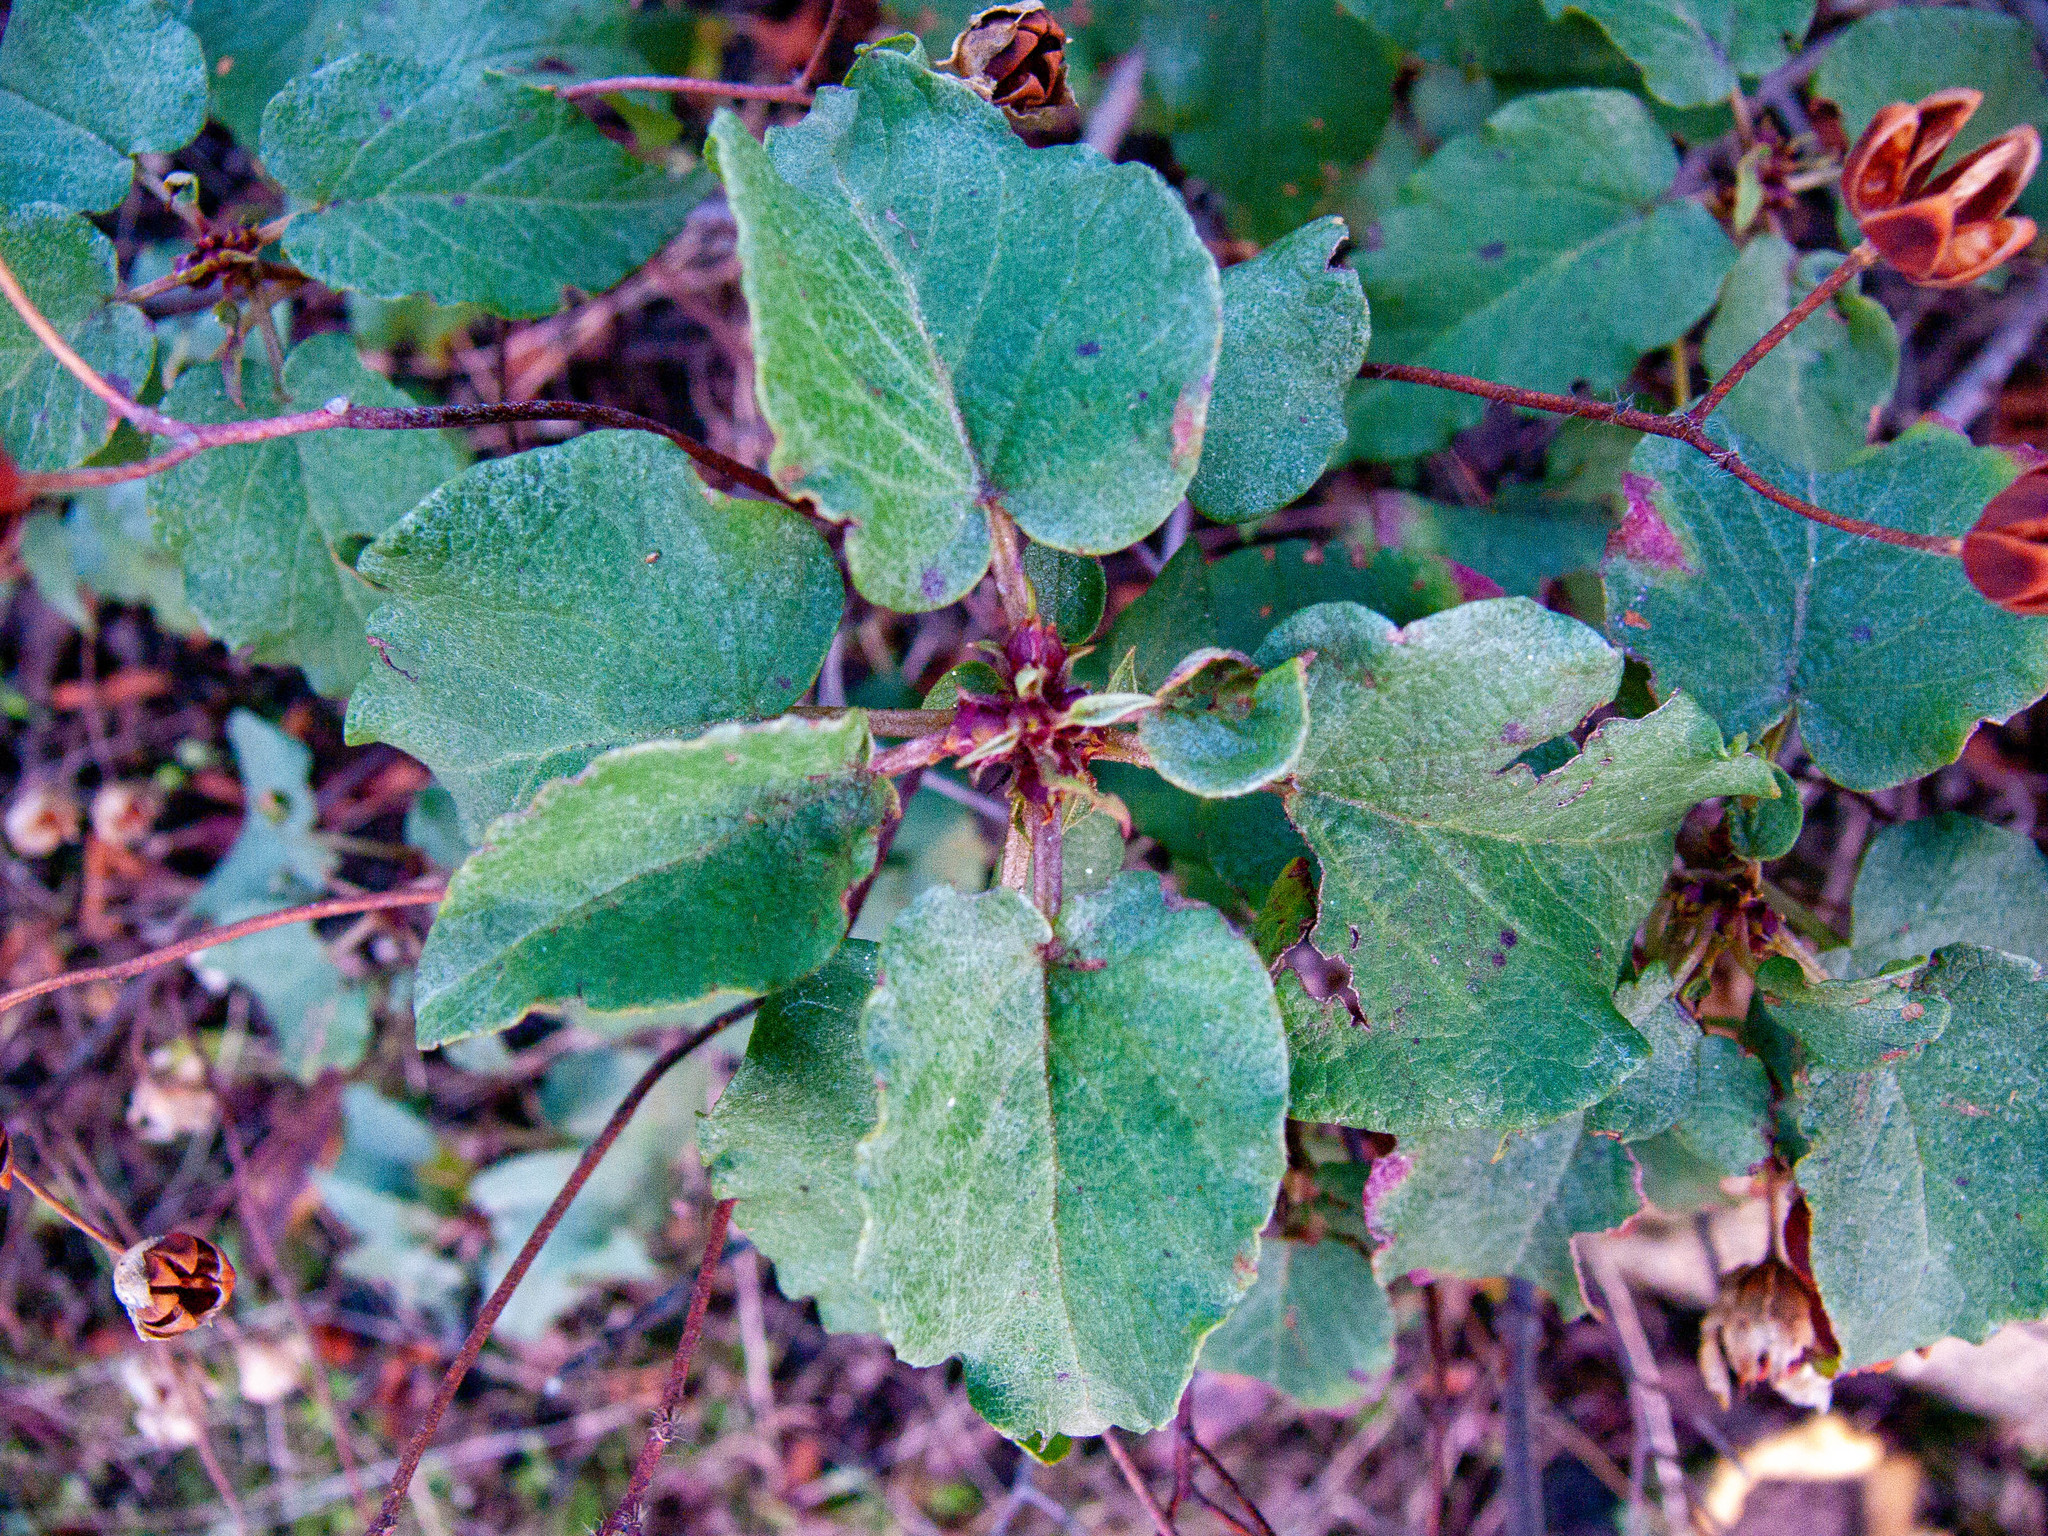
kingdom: Plantae
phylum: Tracheophyta
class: Magnoliopsida
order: Malvales
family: Cistaceae
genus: Cistus
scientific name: Cistus populifolius
